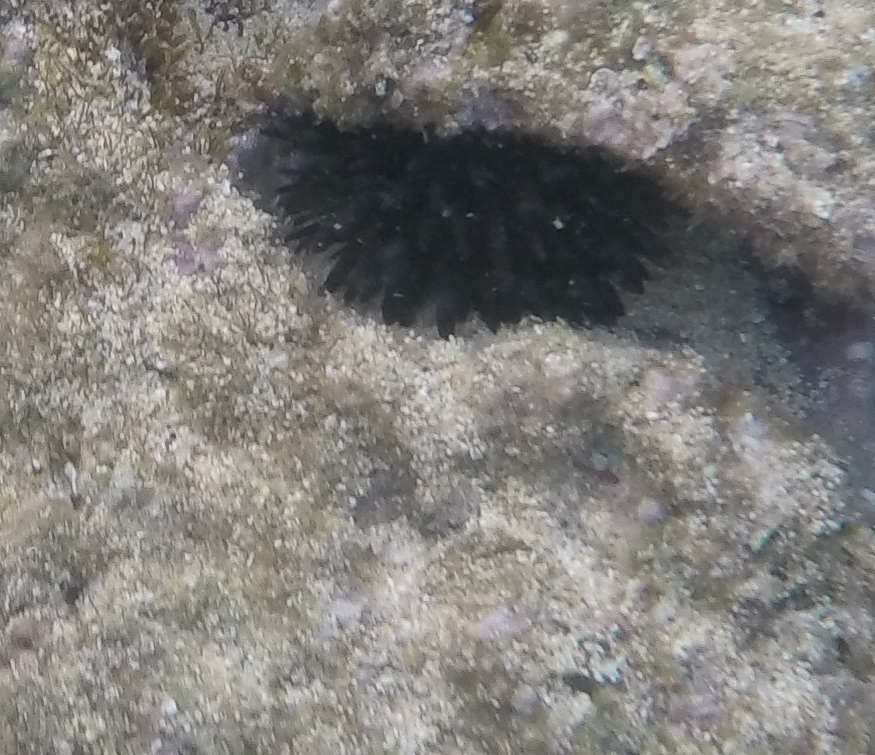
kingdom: Animalia
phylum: Echinodermata
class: Echinoidea
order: Camarodonta
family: Echinometridae
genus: Echinometra
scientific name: Echinometra oblonga
